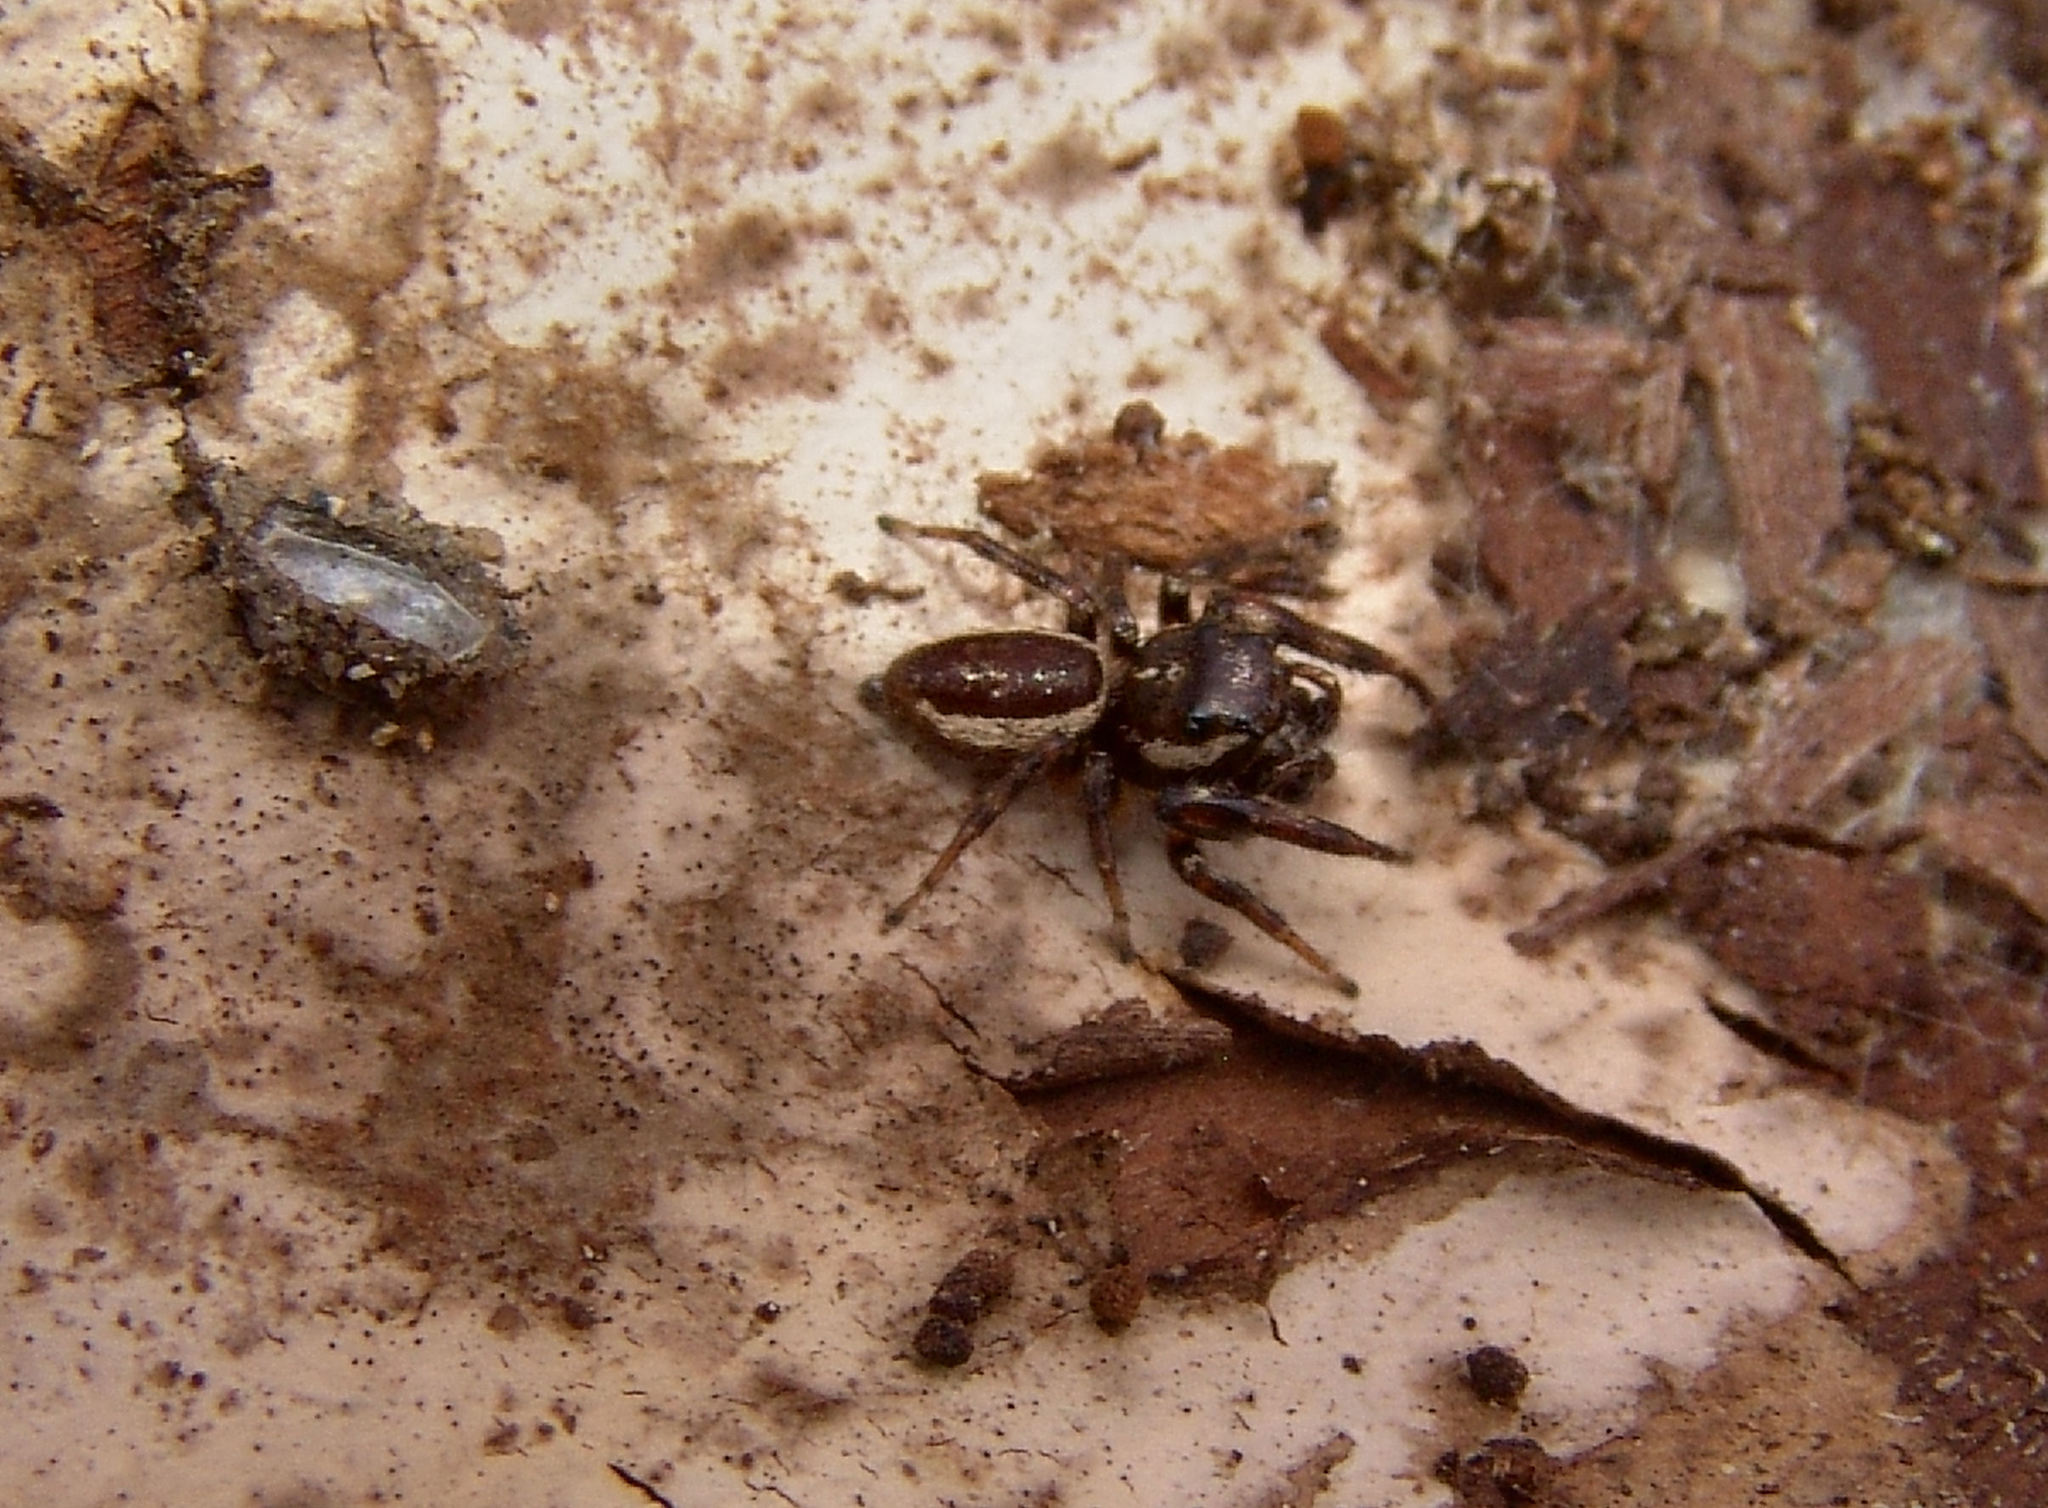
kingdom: Animalia
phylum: Arthropoda
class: Arachnida
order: Araneae
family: Salticidae
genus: Eris
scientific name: Eris militaris
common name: Bronze jumper
